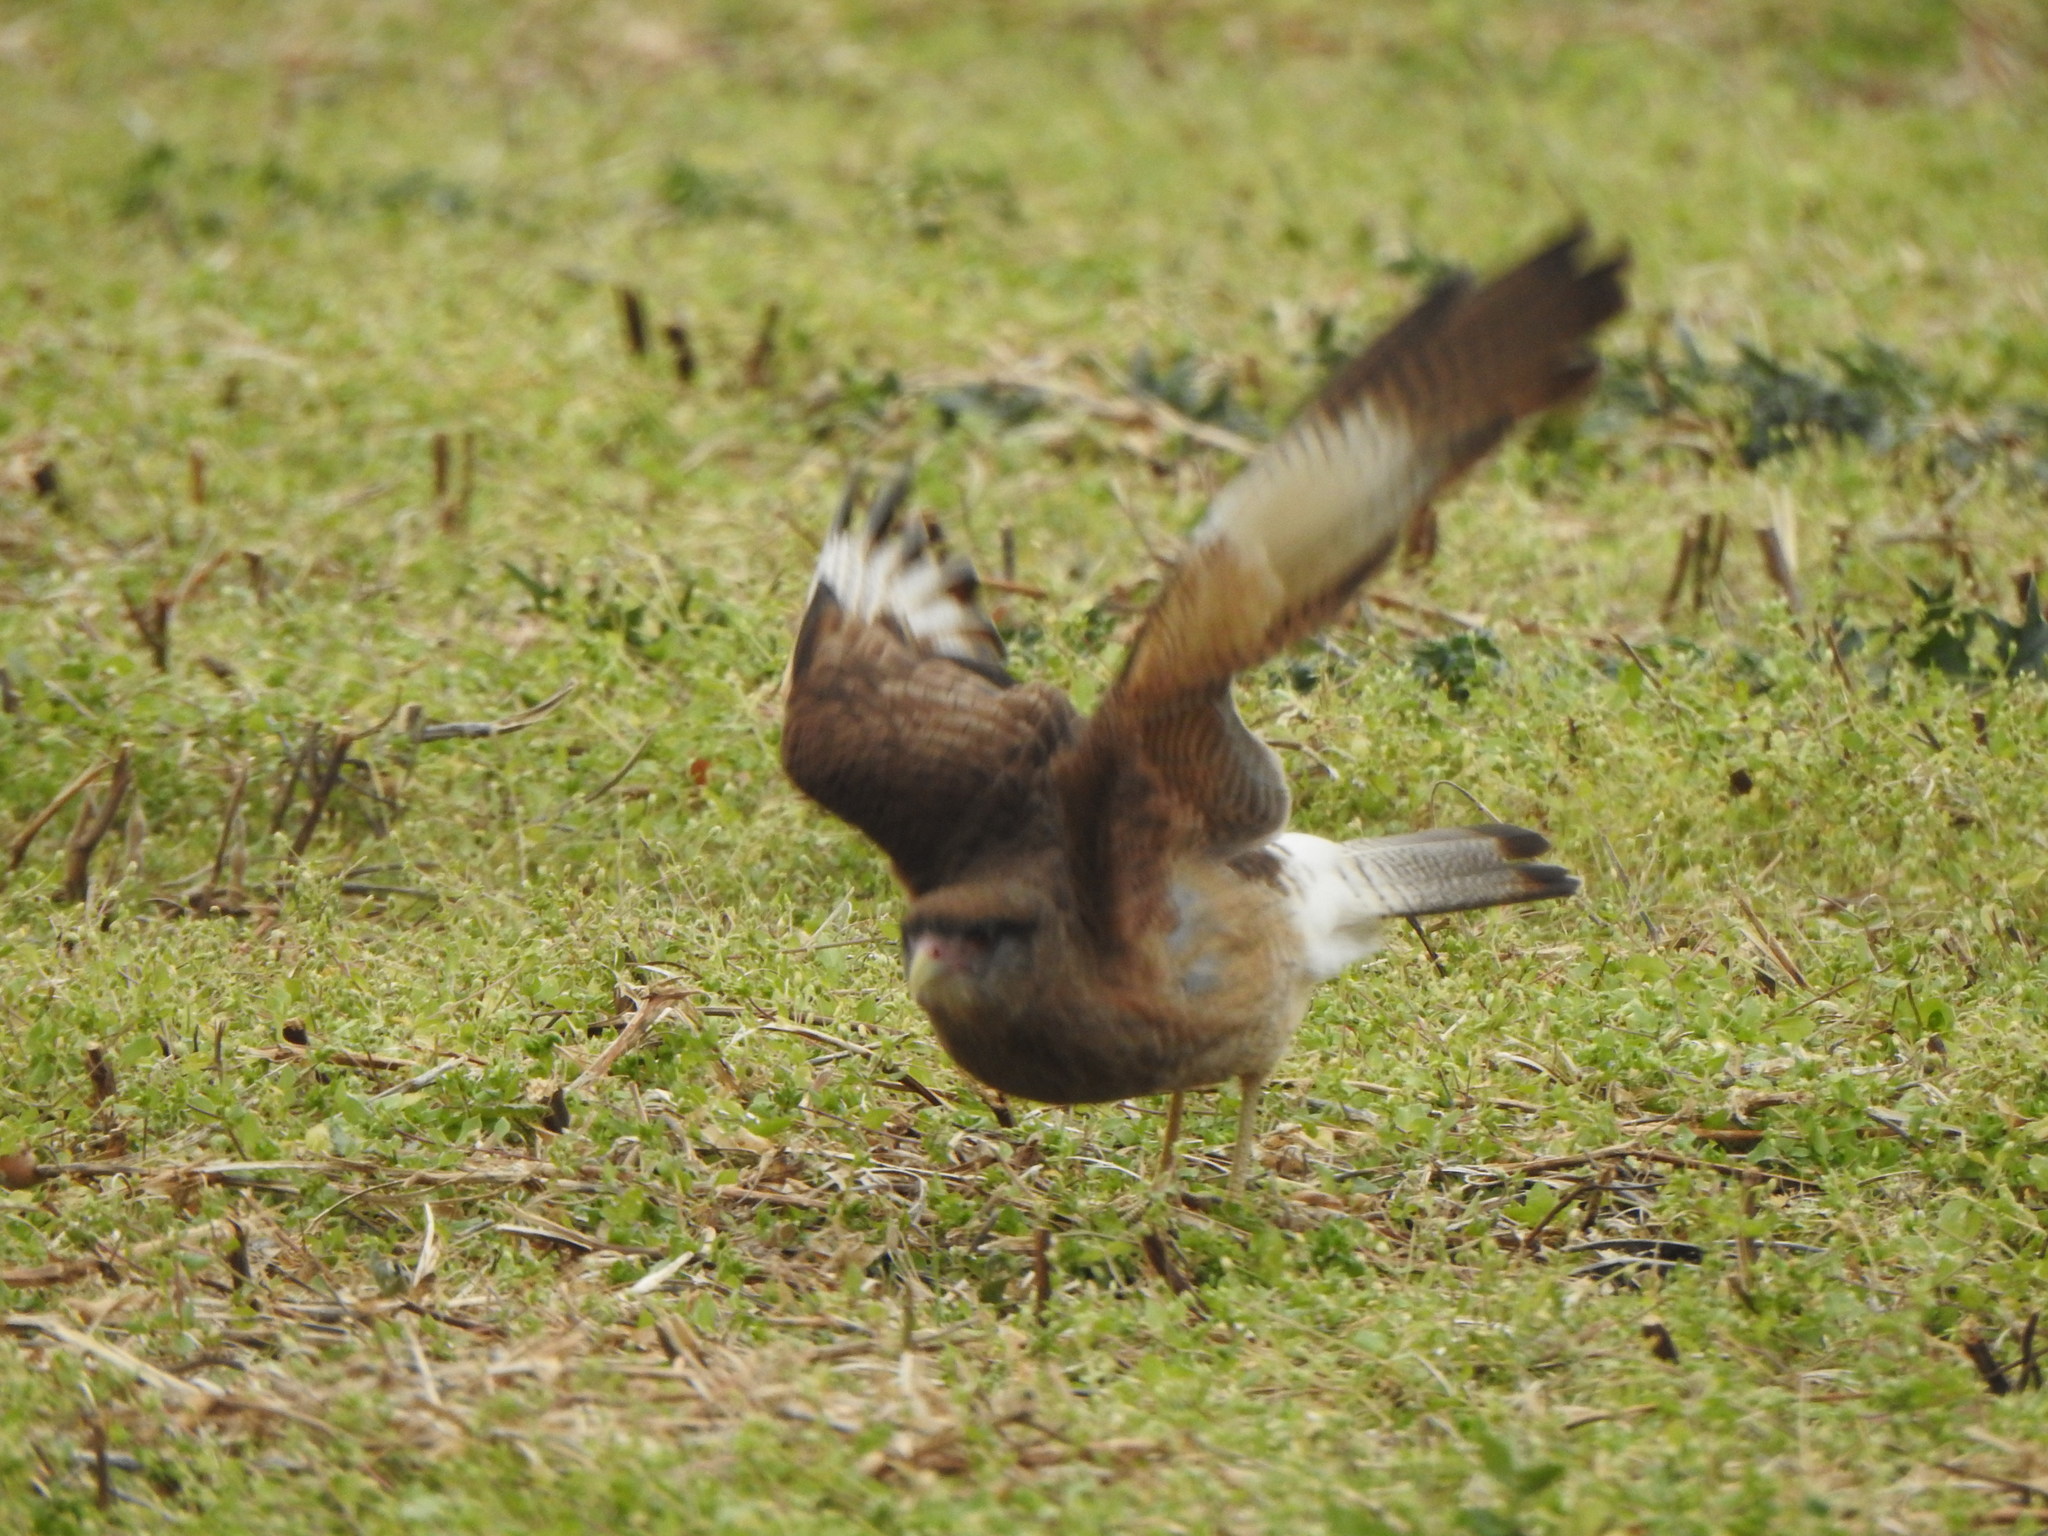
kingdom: Animalia
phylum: Chordata
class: Aves
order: Falconiformes
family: Falconidae
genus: Daptrius
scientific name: Daptrius
